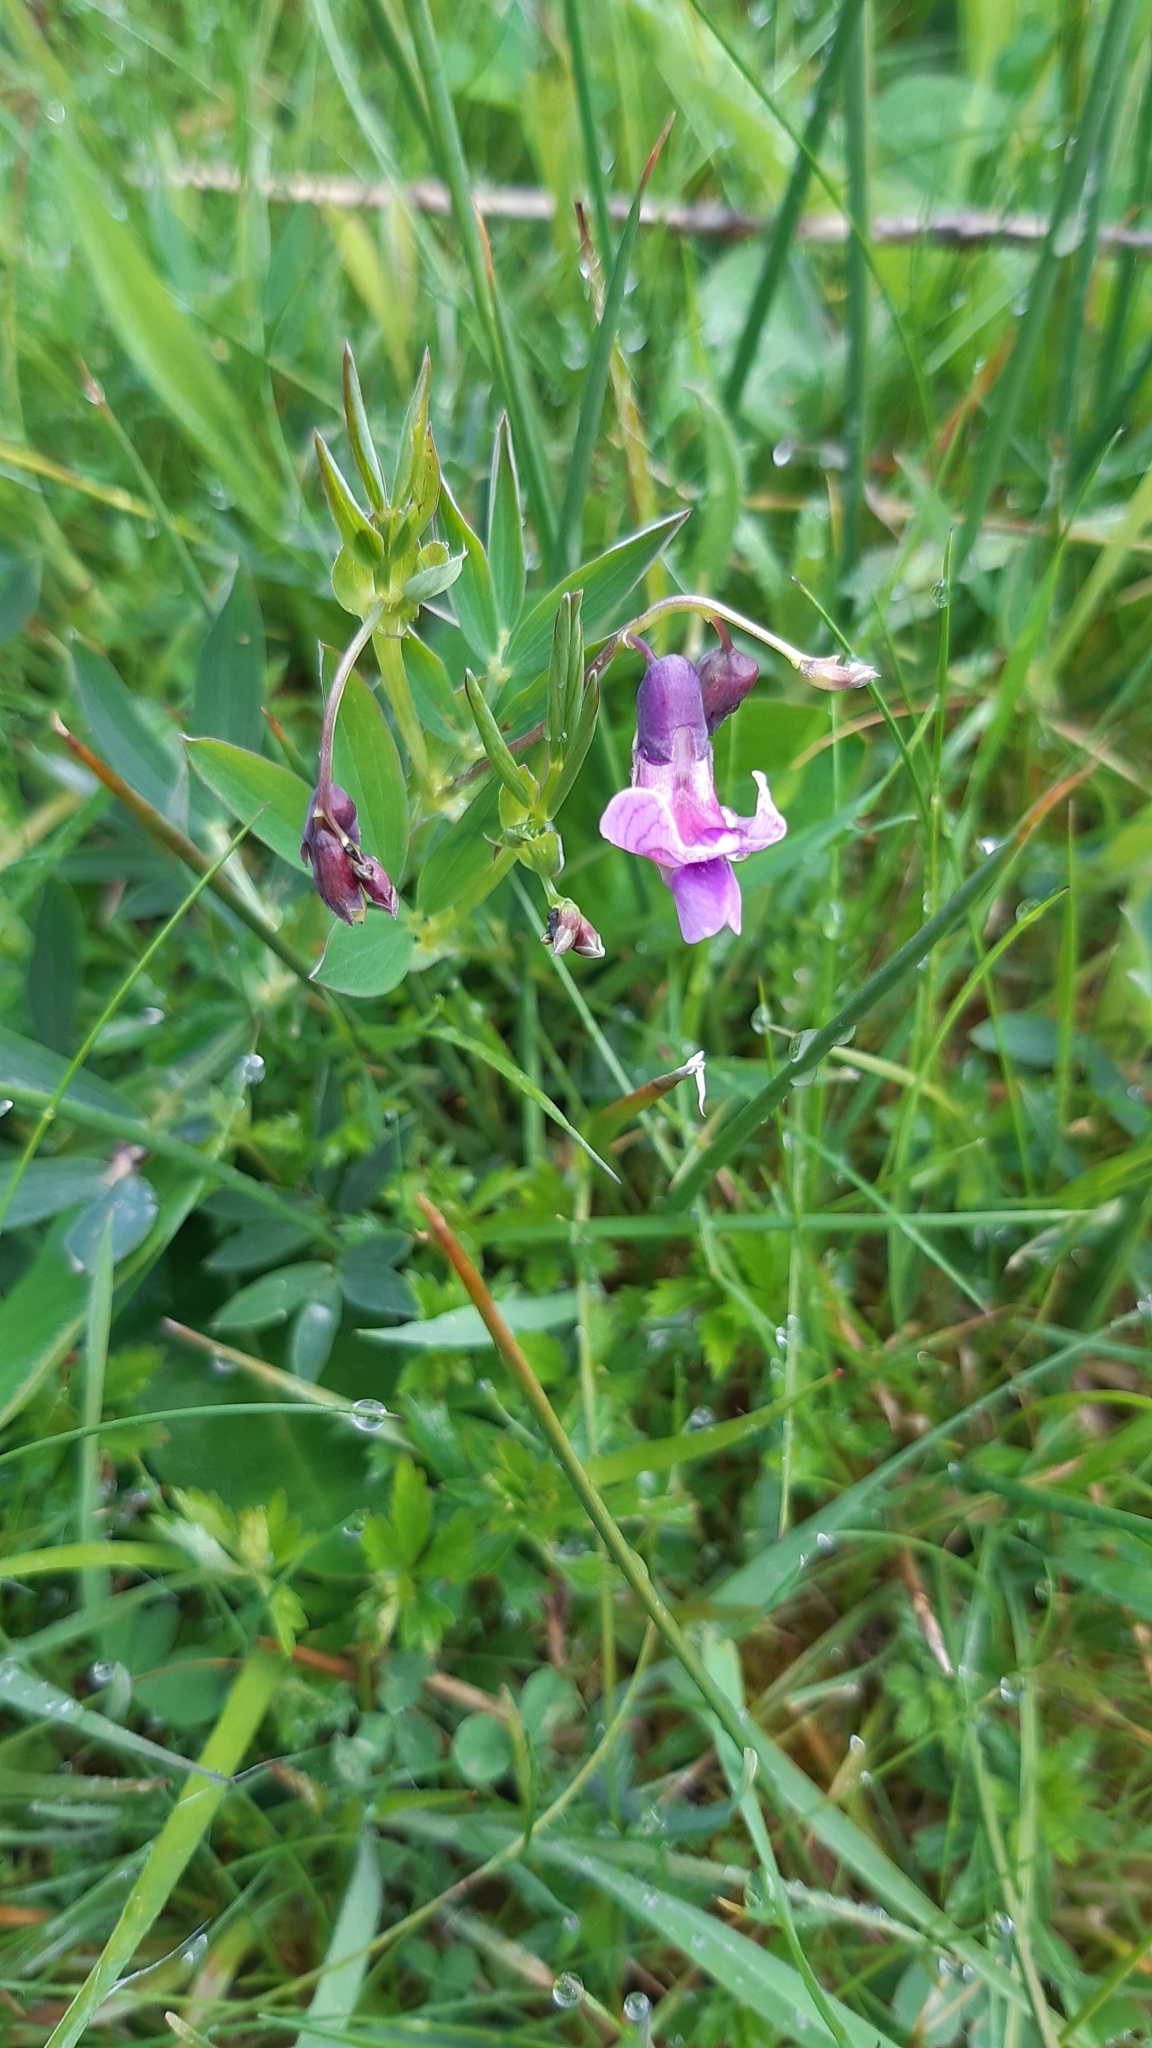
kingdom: Plantae
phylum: Tracheophyta
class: Magnoliopsida
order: Fabales
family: Fabaceae
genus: Lathyrus
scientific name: Lathyrus linifolius
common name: Bitter-vetch
